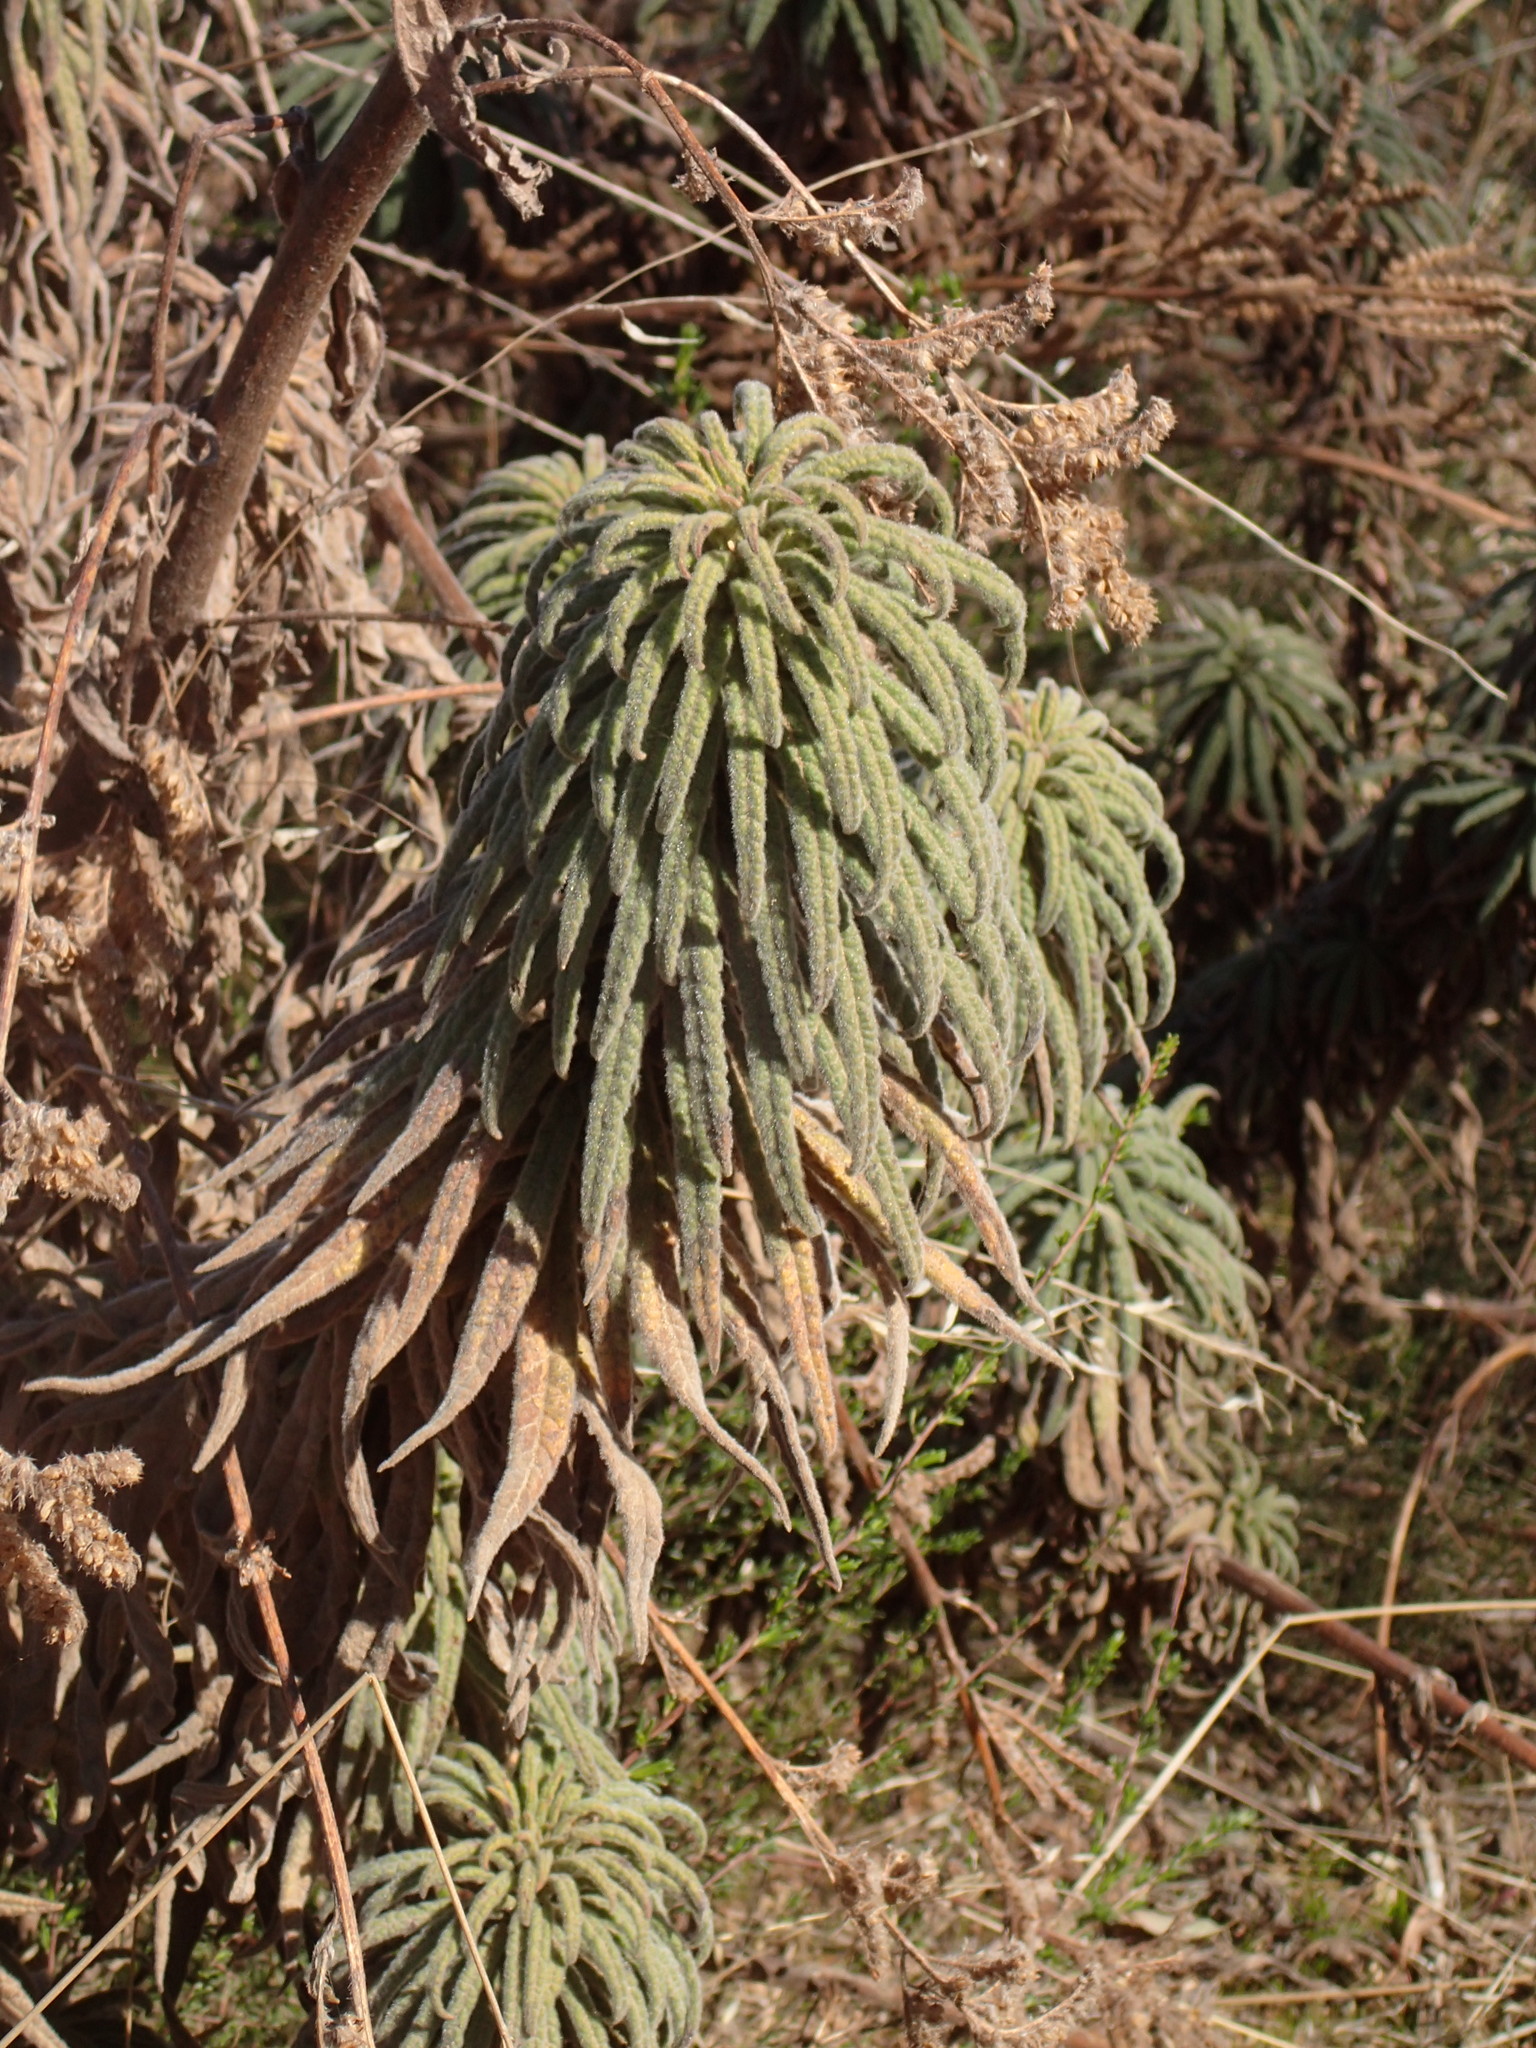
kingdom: Plantae
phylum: Tracheophyta
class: Magnoliopsida
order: Boraginales
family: Namaceae
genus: Turricula
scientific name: Turricula parryi
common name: Poodle-dog-bush
